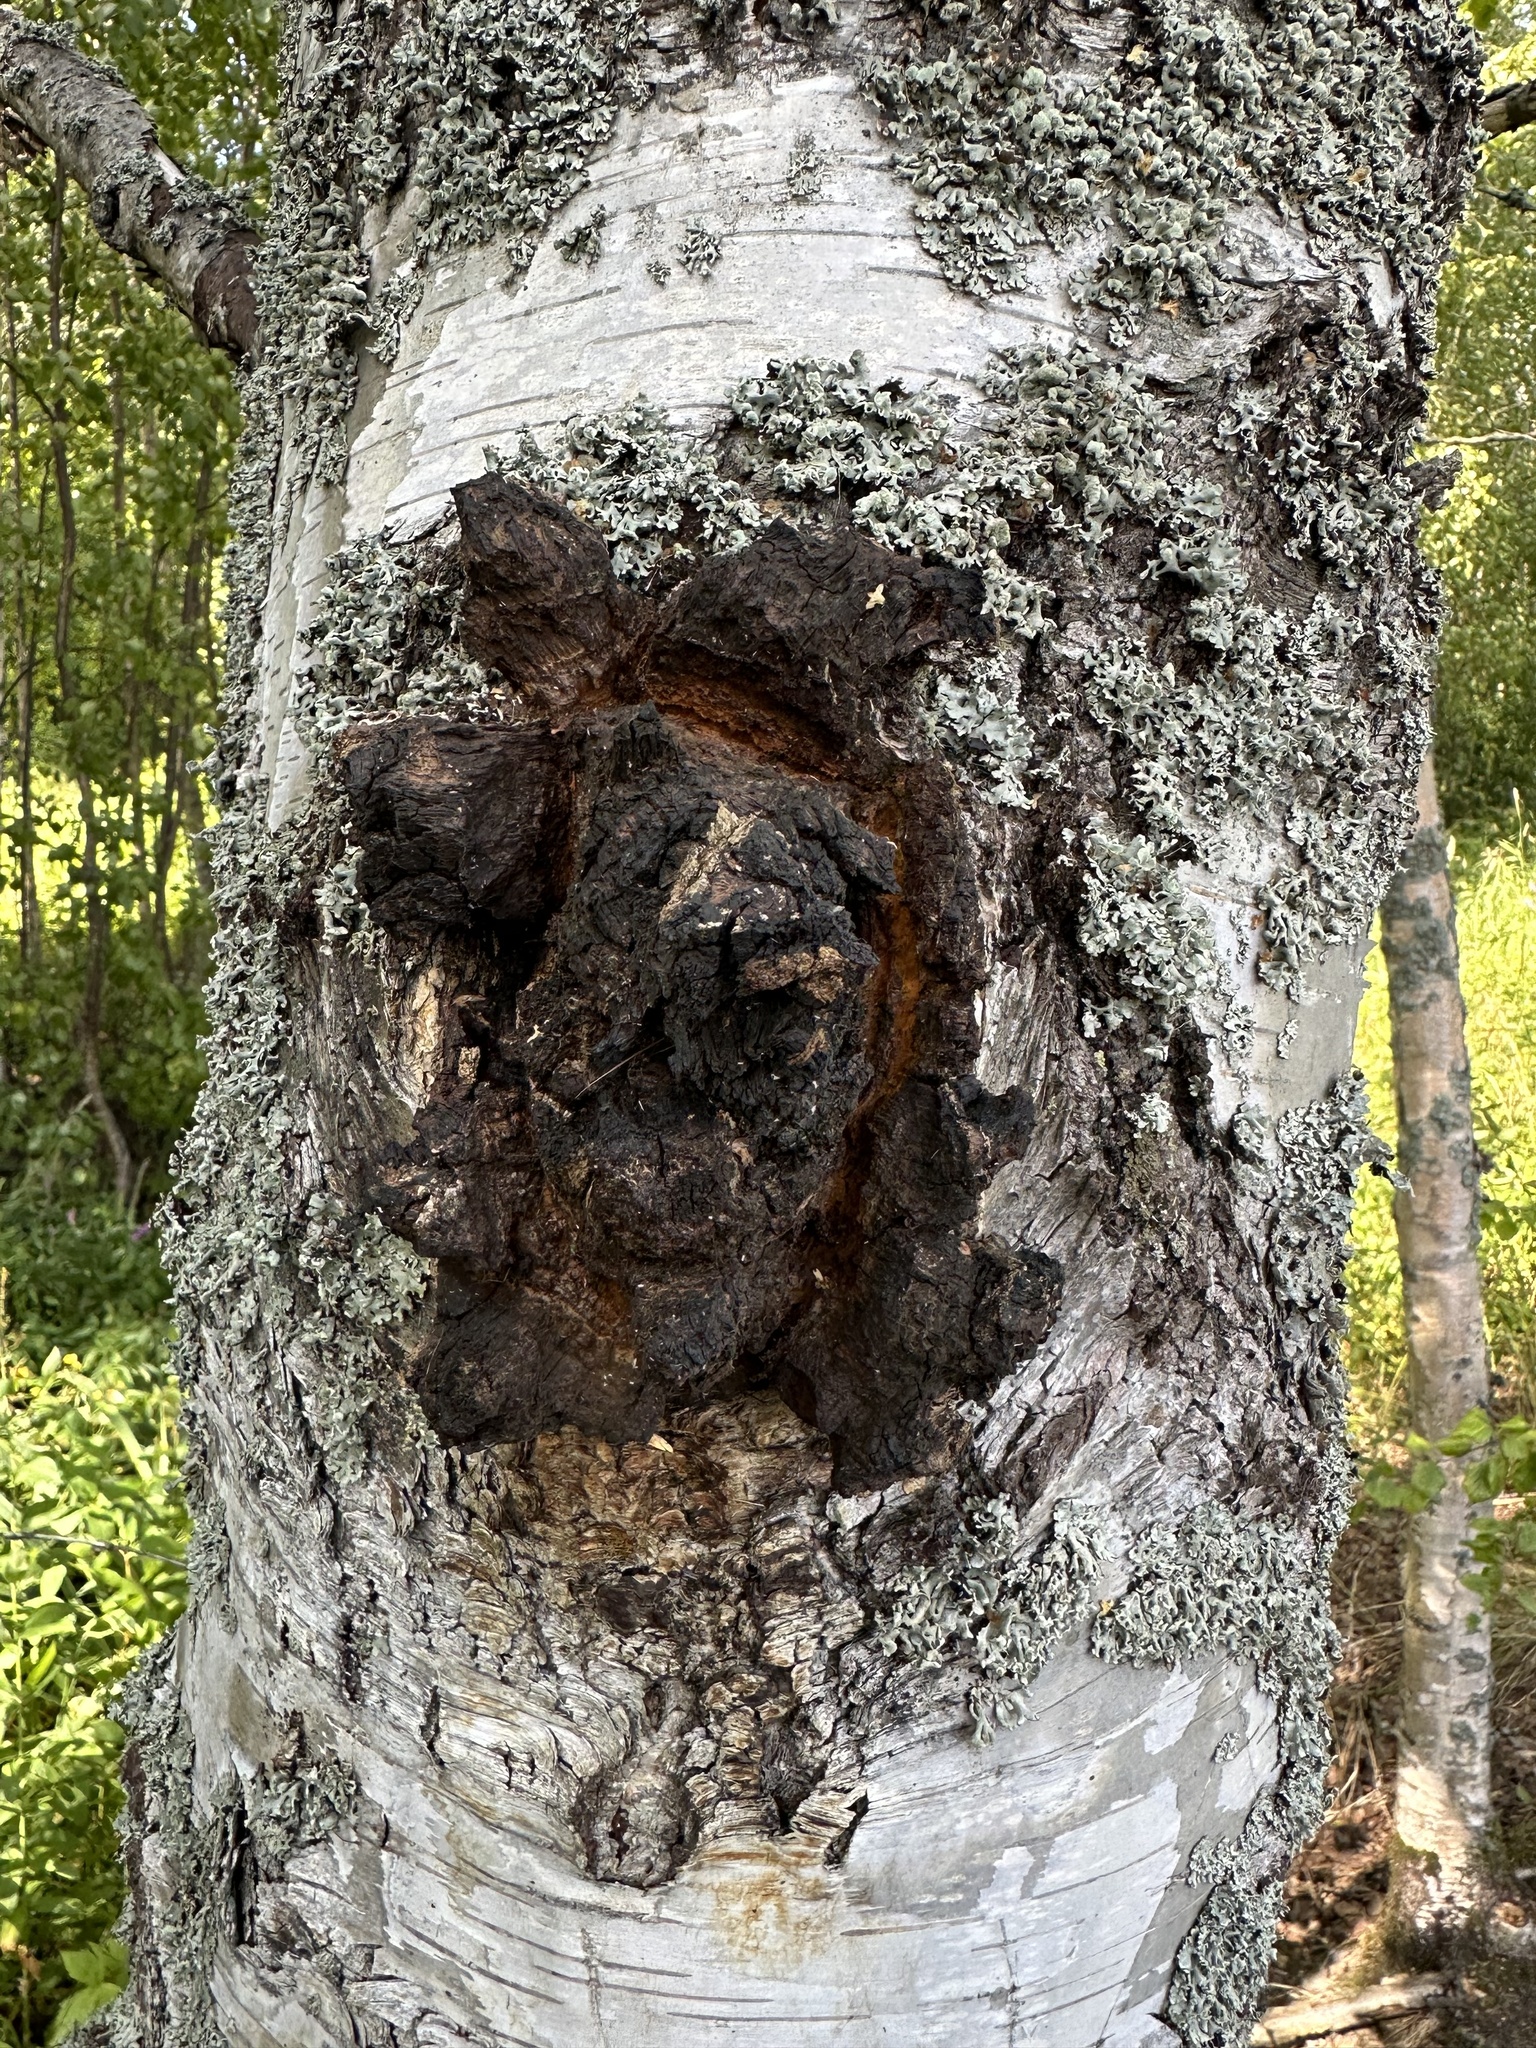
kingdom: Fungi
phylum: Basidiomycota
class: Agaricomycetes
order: Hymenochaetales
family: Hymenochaetaceae
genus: Inonotus
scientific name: Inonotus obliquus
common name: Chaga
